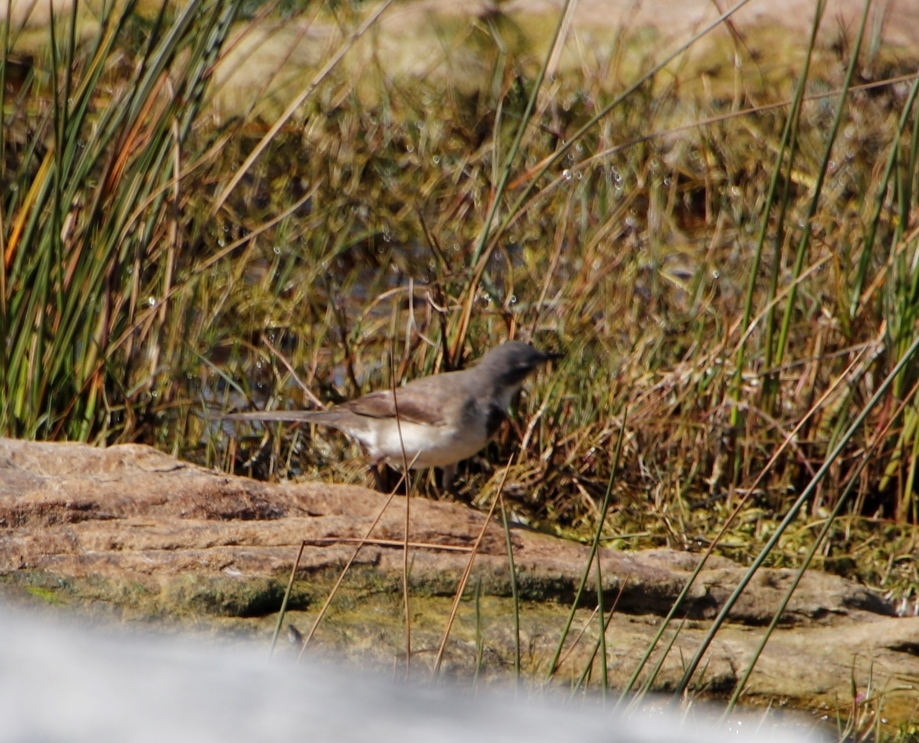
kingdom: Animalia
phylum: Chordata
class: Aves
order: Passeriformes
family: Motacillidae
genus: Motacilla
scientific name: Motacilla capensis
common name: Cape wagtail
